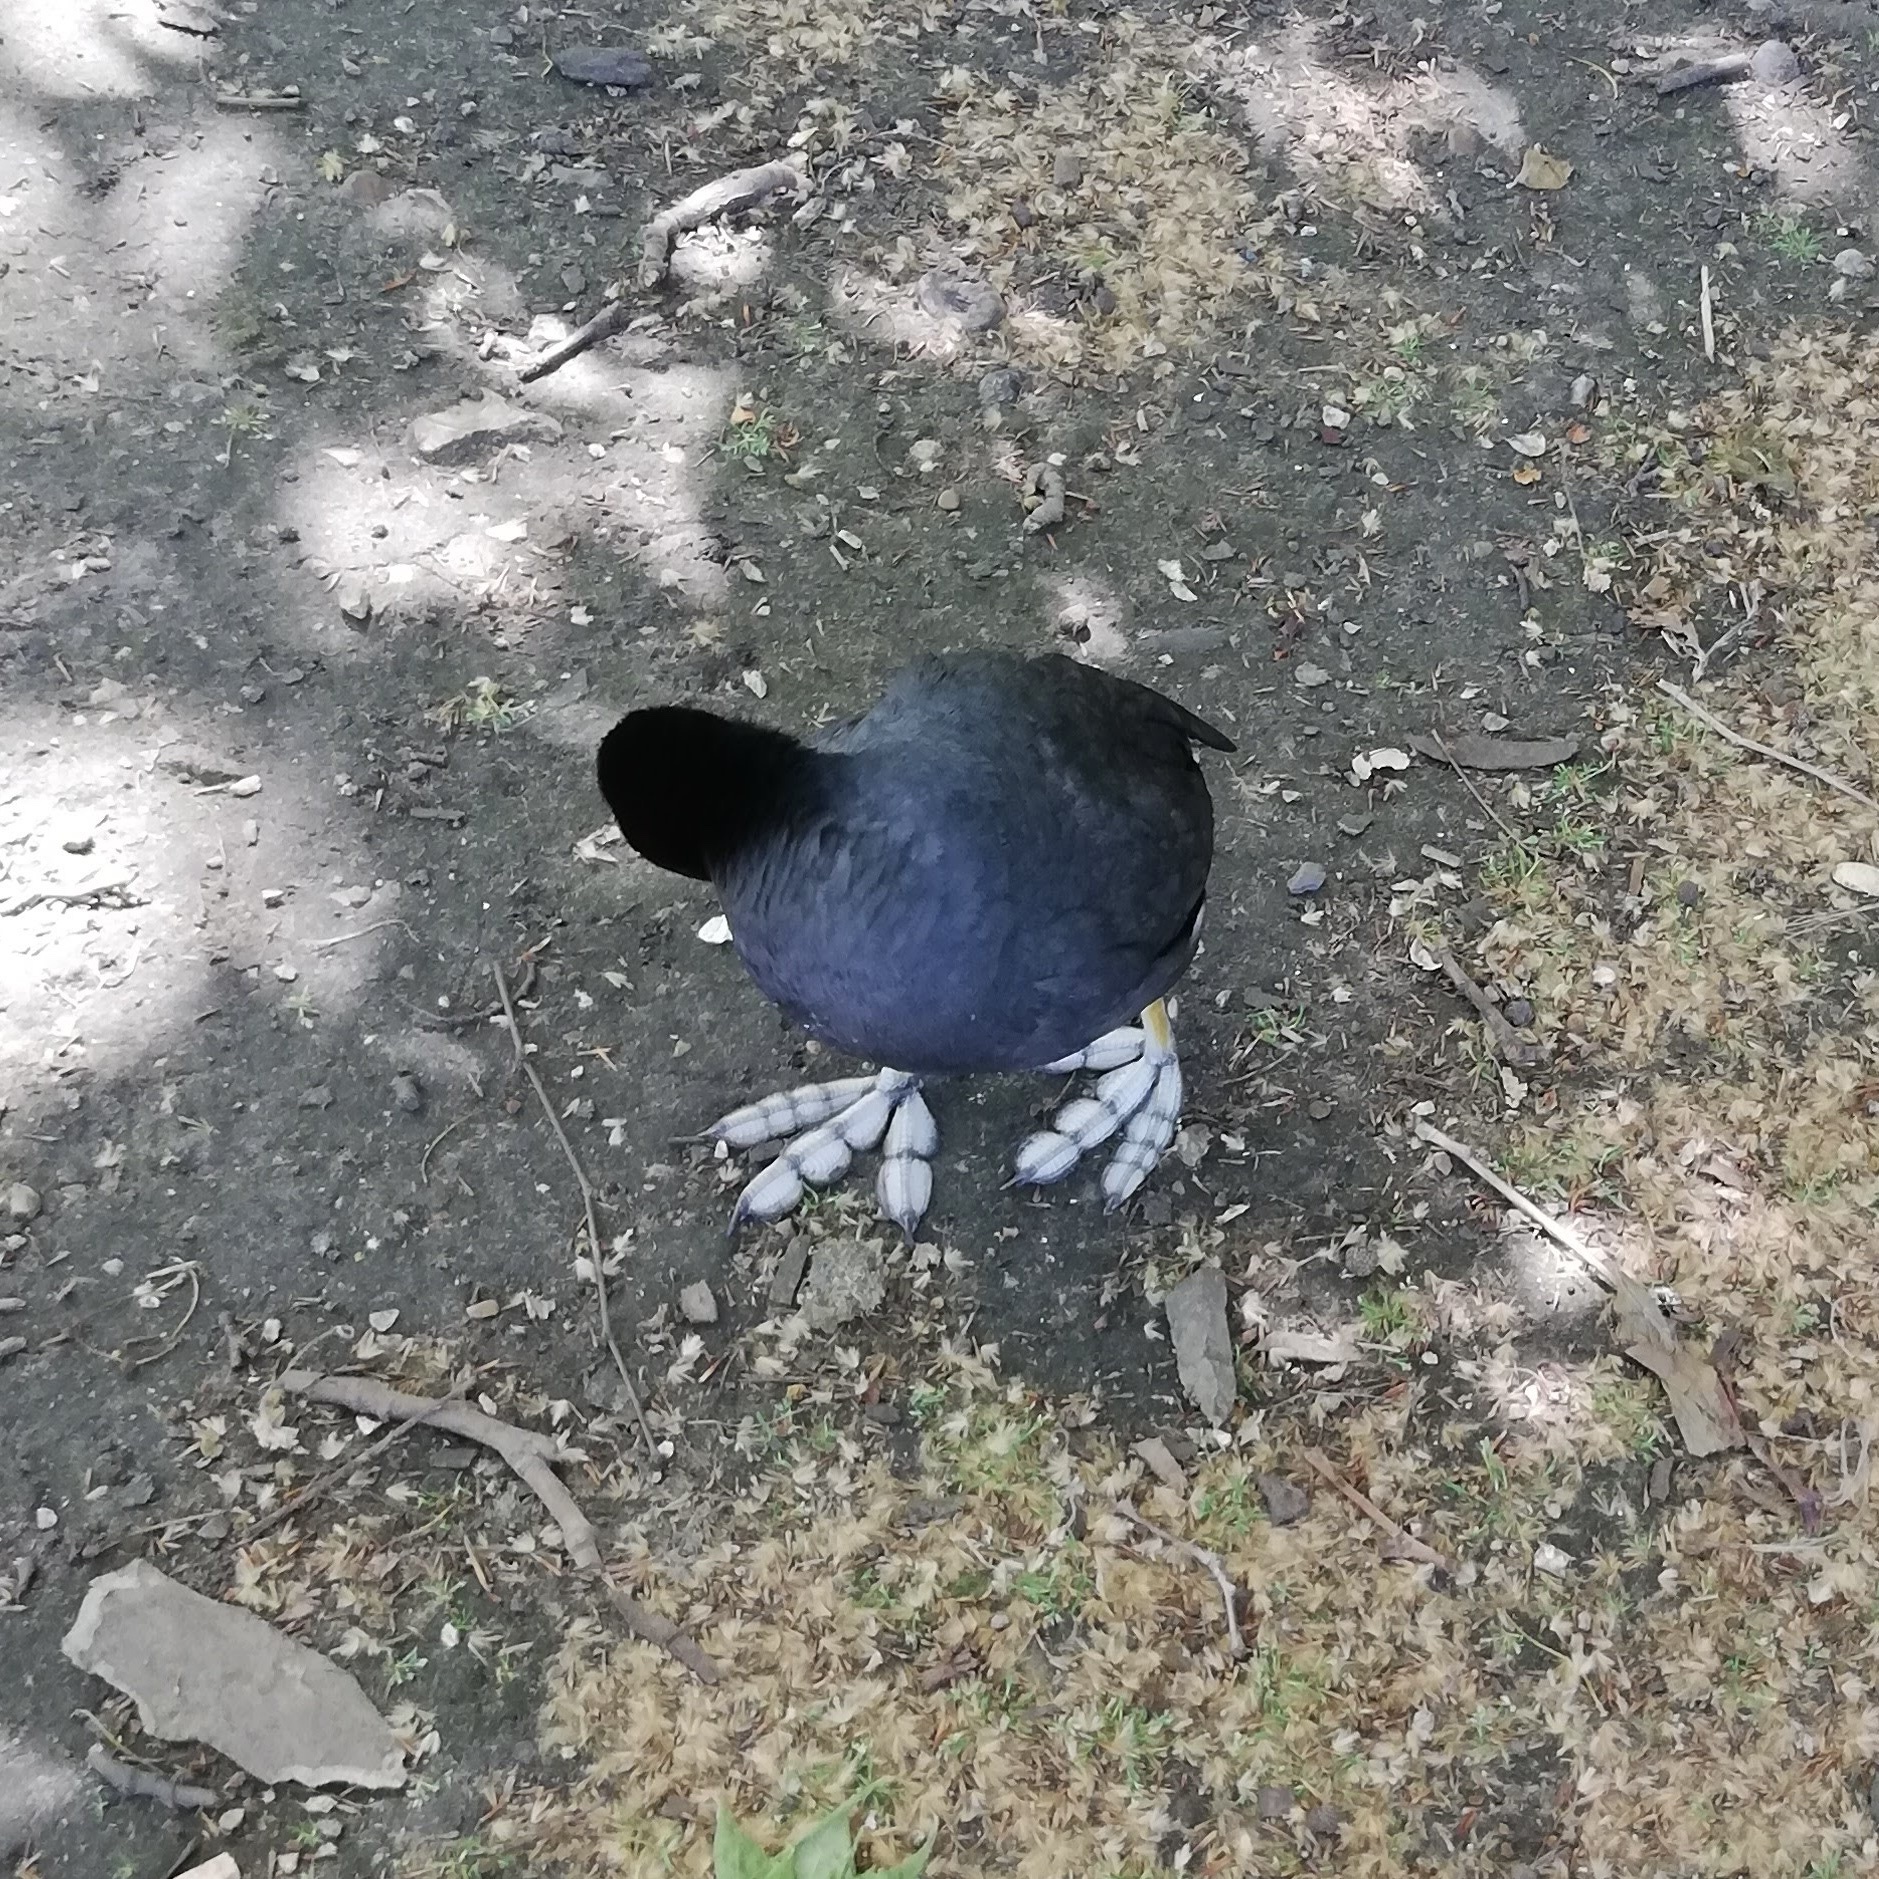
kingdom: Animalia
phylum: Chordata
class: Aves
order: Gruiformes
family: Rallidae
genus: Fulica
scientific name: Fulica atra
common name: Eurasian coot
